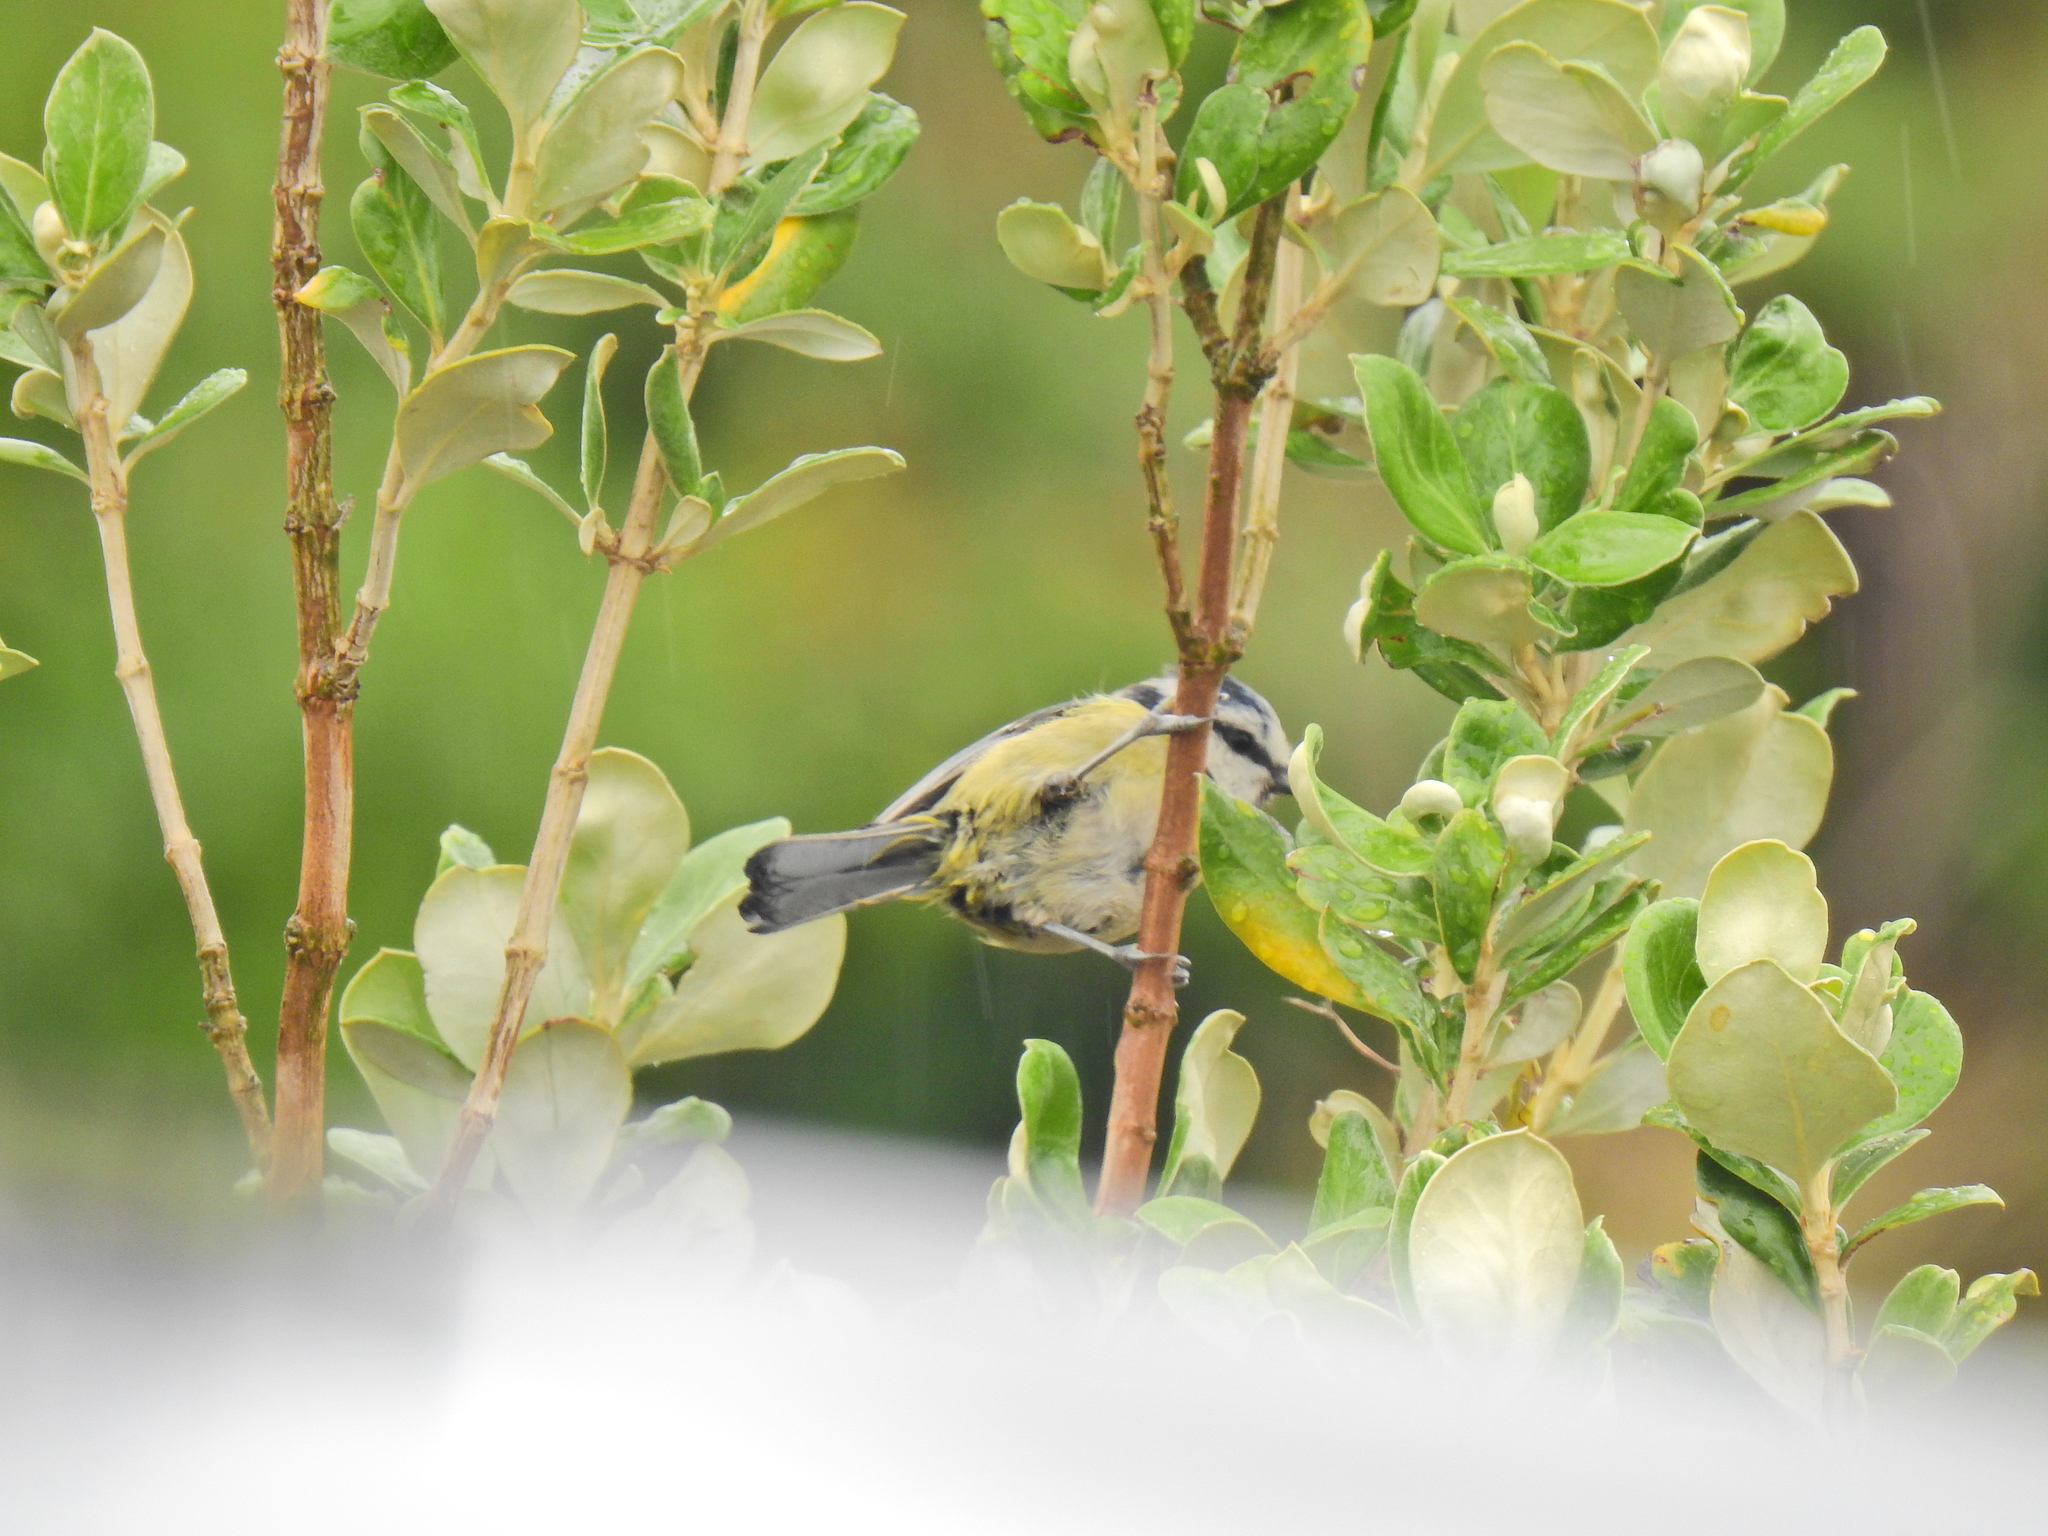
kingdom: Animalia
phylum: Chordata
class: Aves
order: Passeriformes
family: Paridae
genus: Cyanistes
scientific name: Cyanistes caeruleus
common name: Eurasian blue tit
